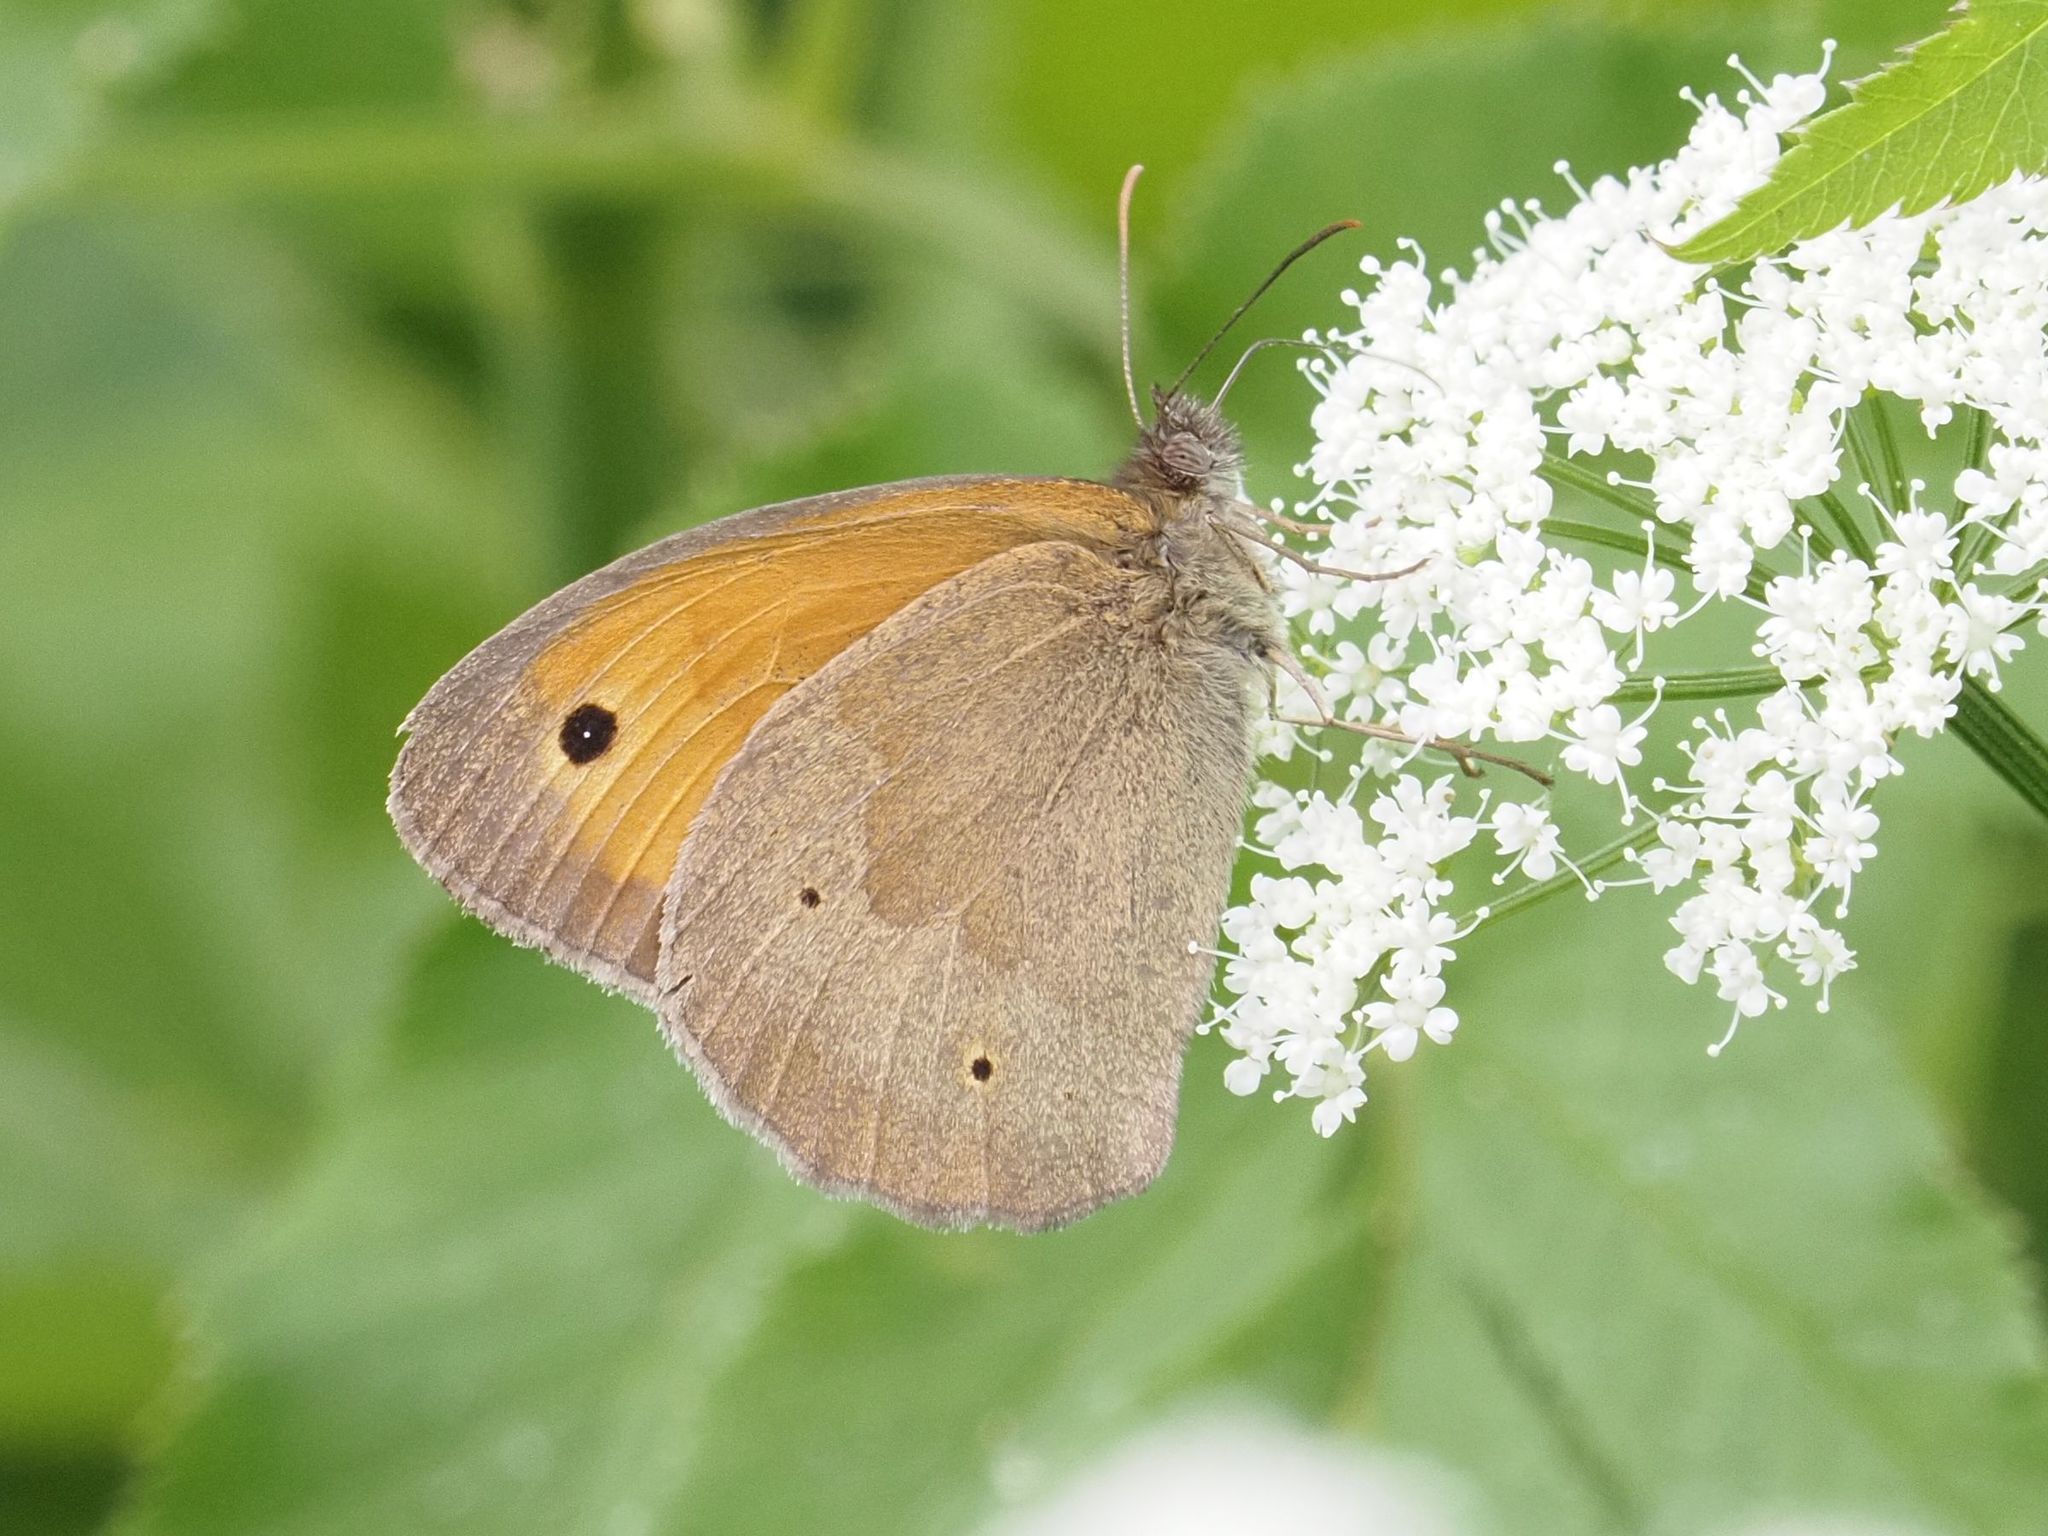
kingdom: Animalia
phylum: Arthropoda
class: Insecta
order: Lepidoptera
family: Nymphalidae
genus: Maniola
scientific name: Maniola jurtina
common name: Meadow brown
